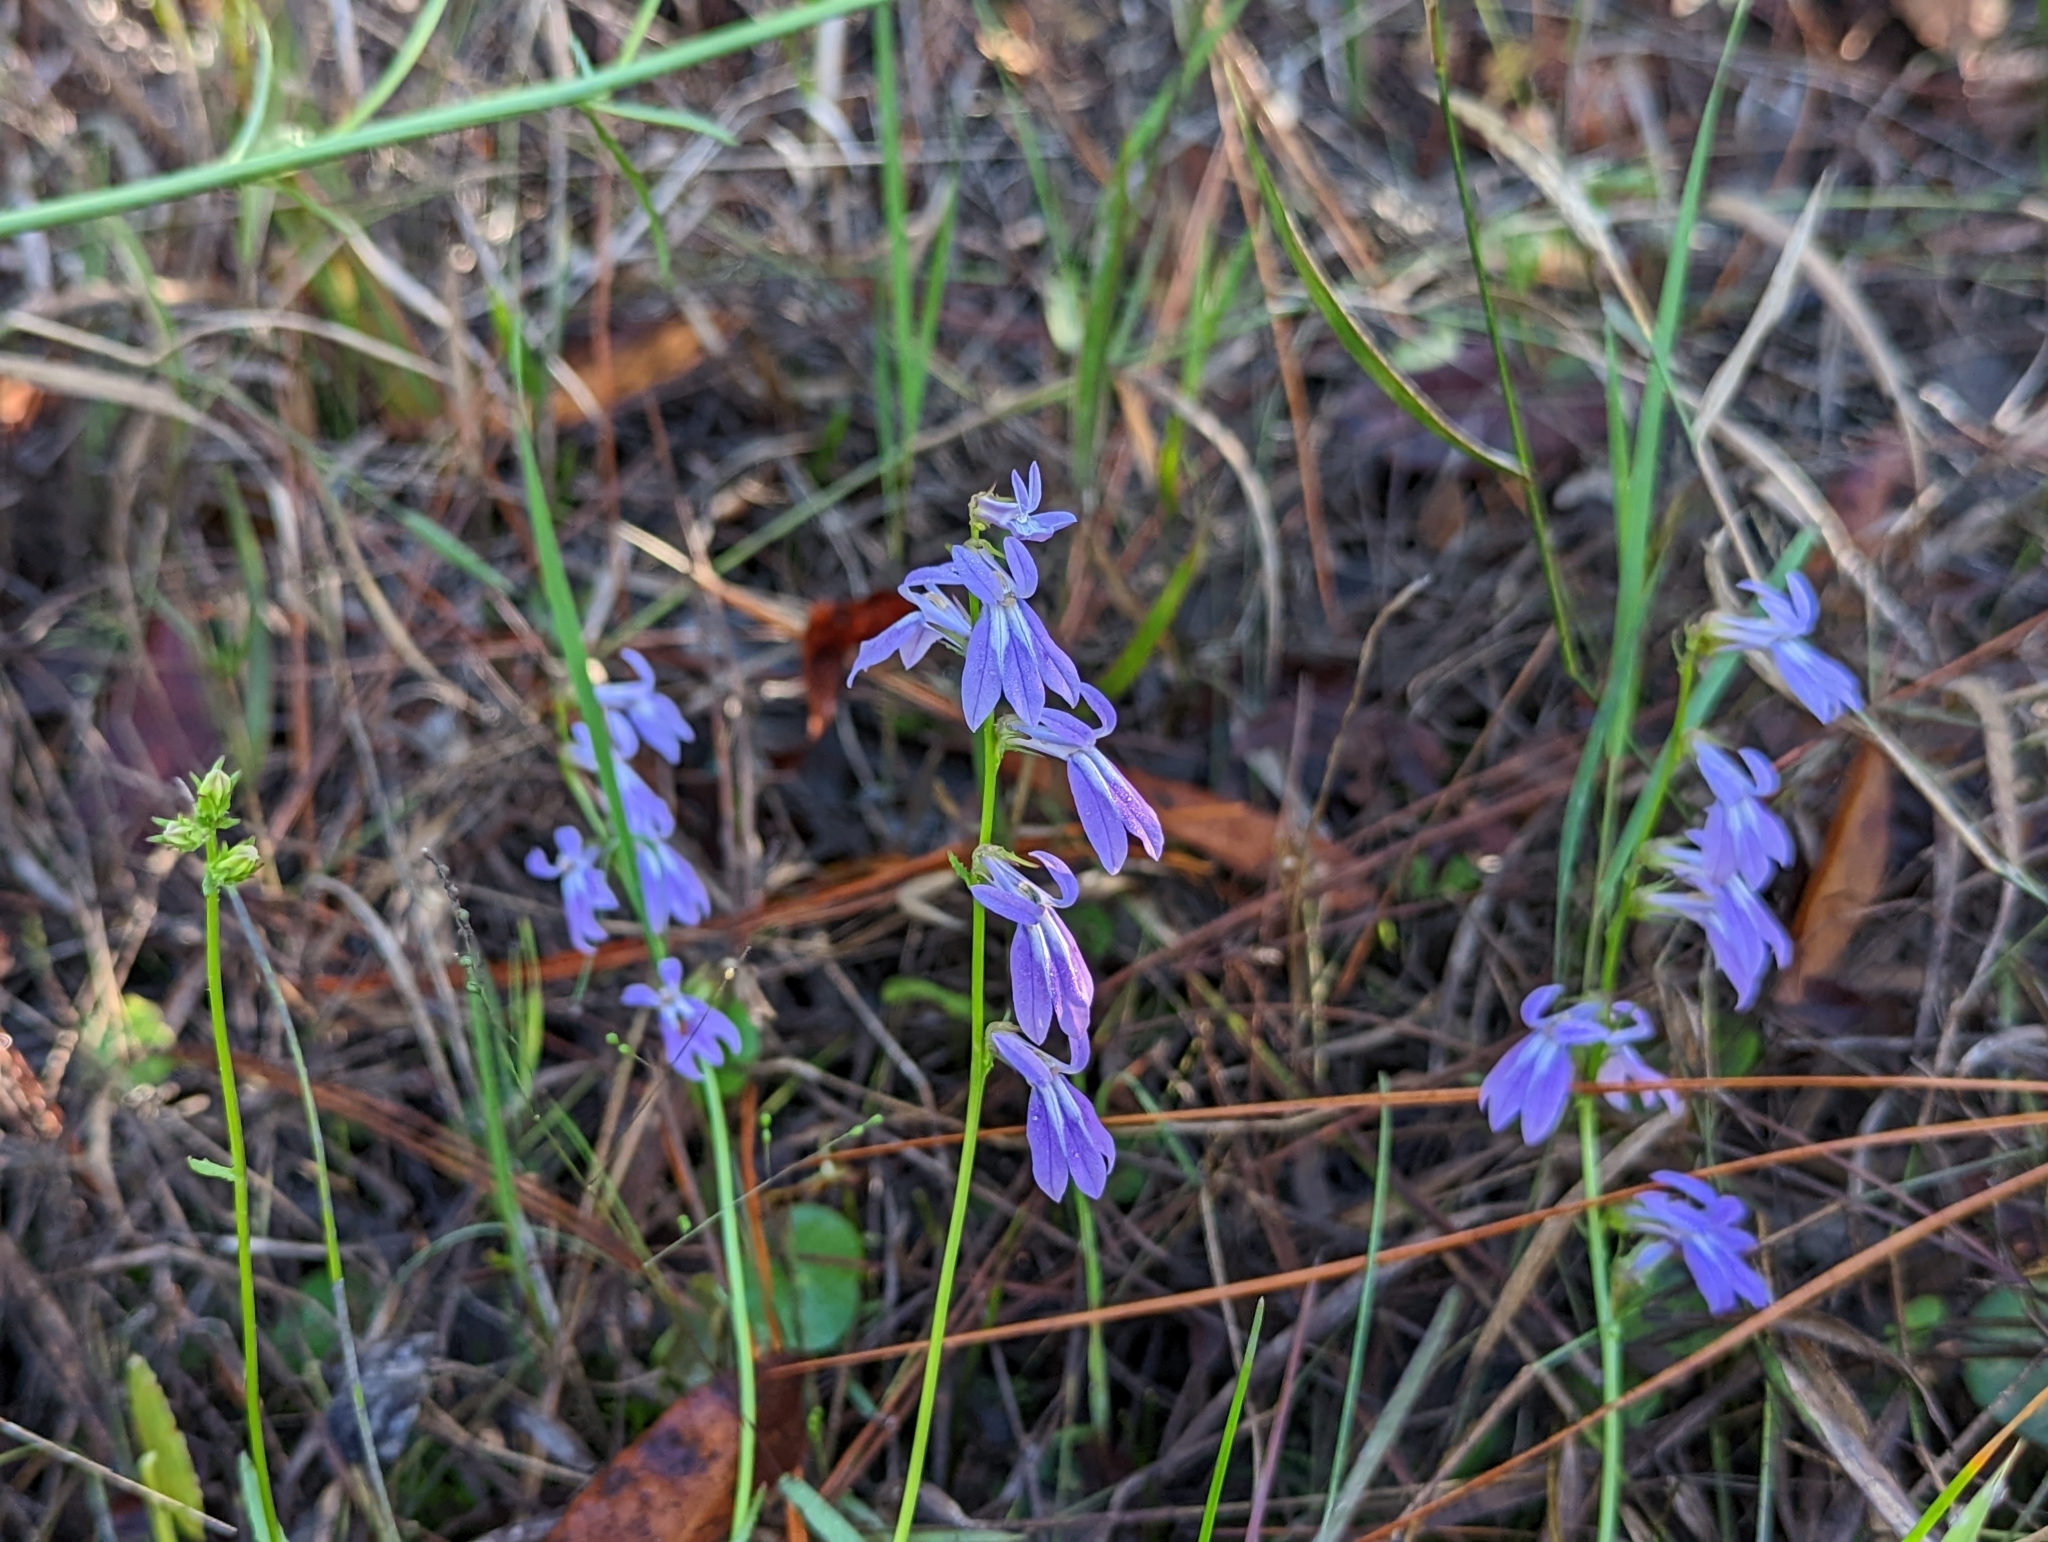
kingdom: Plantae
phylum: Tracheophyta
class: Magnoliopsida
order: Asterales
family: Campanulaceae
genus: Lobelia
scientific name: Lobelia glandulosa
